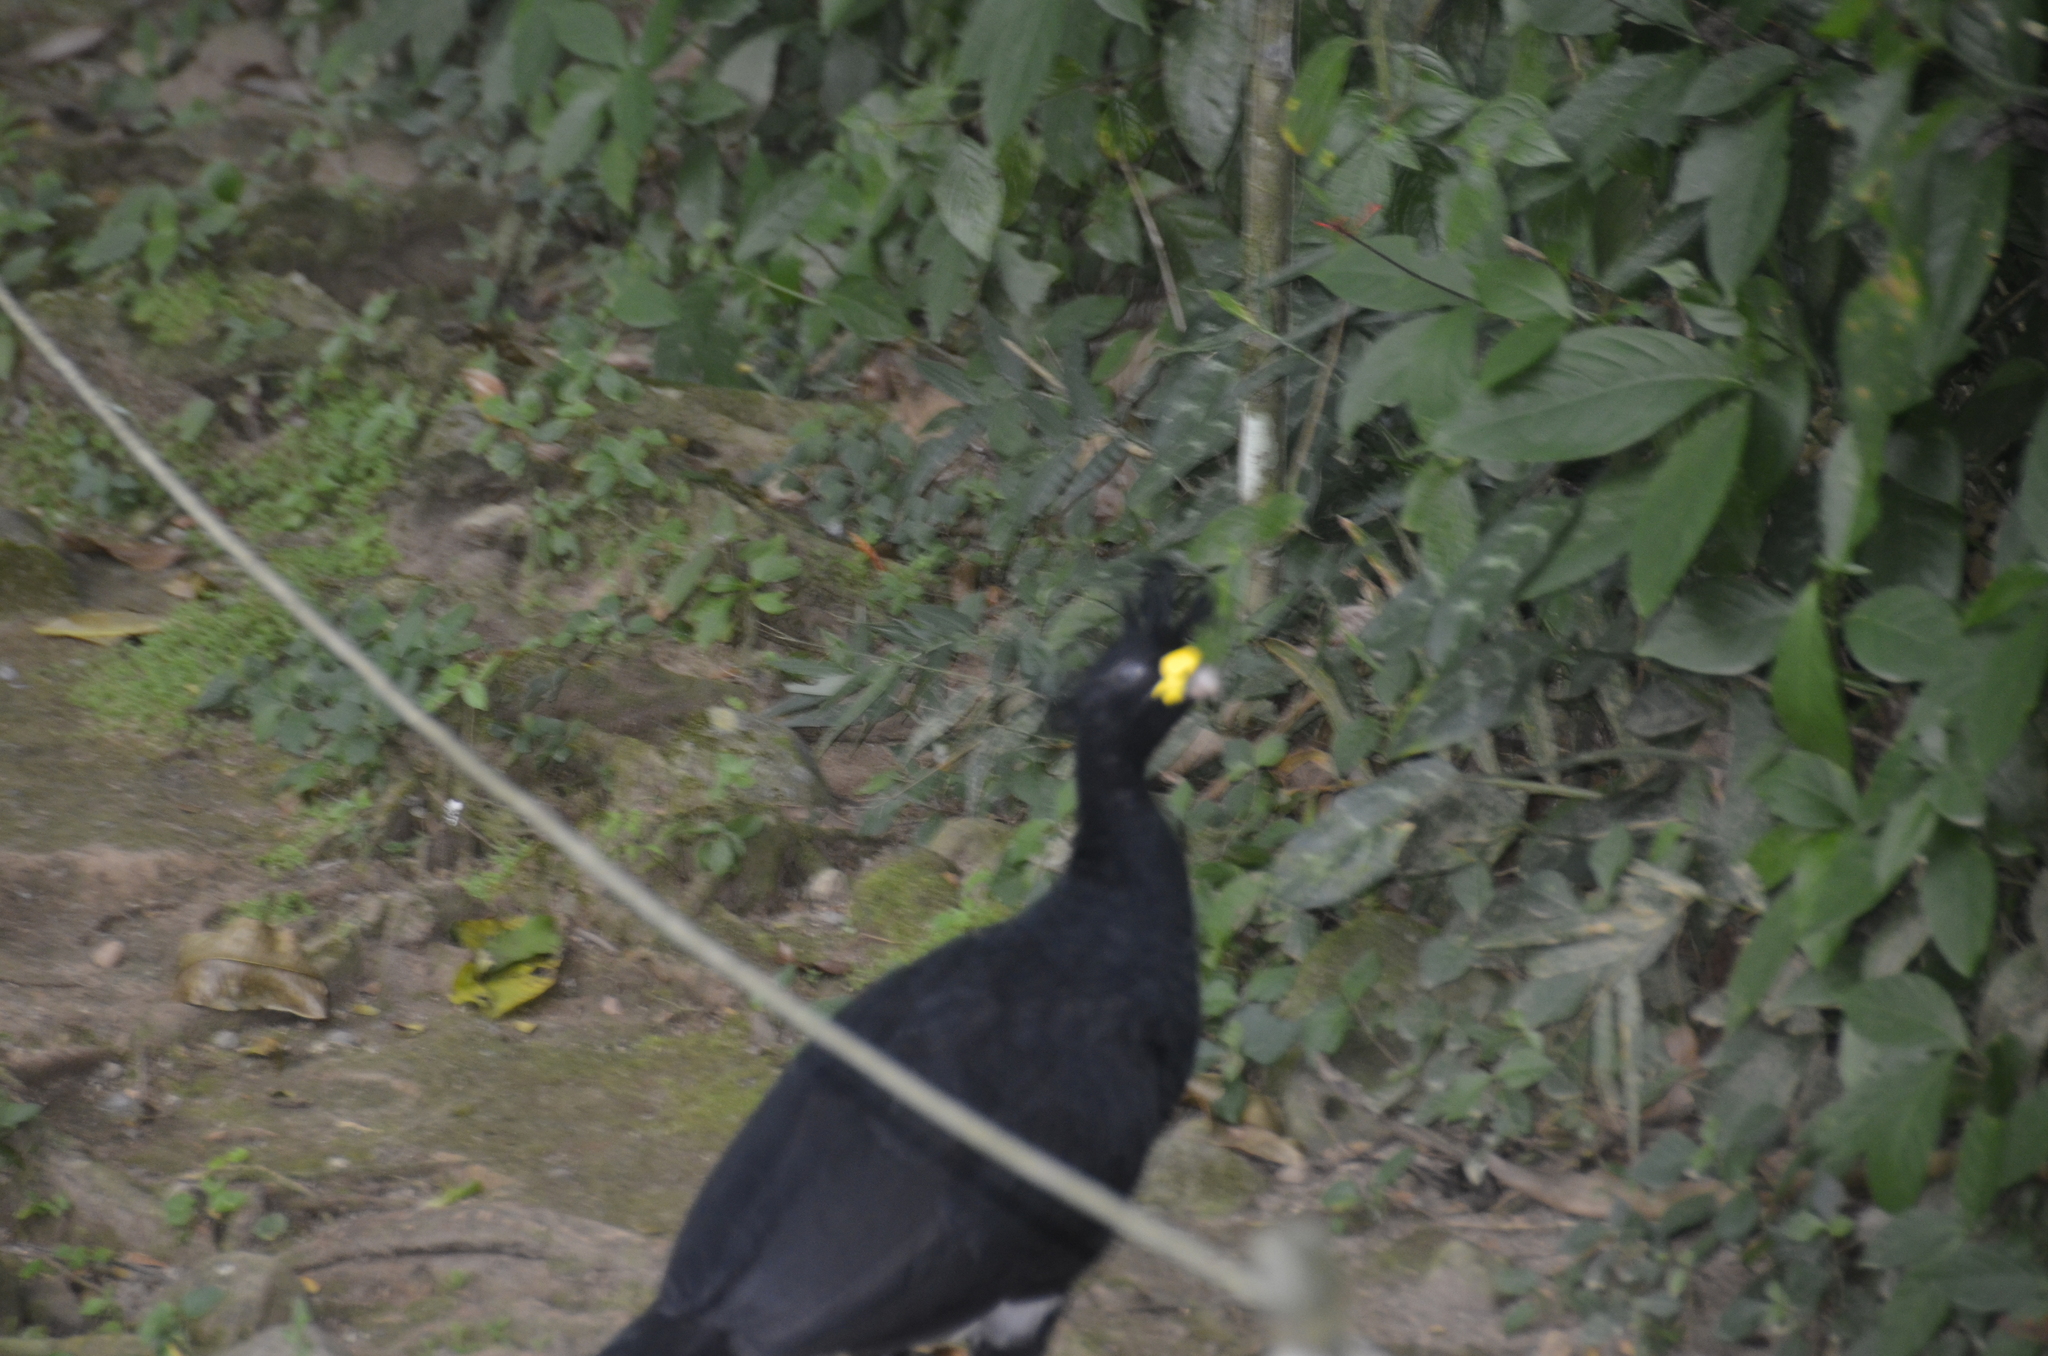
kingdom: Animalia
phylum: Chordata
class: Aves
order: Galliformes
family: Cracidae
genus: Crax
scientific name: Crax rubra
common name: Great curassow
